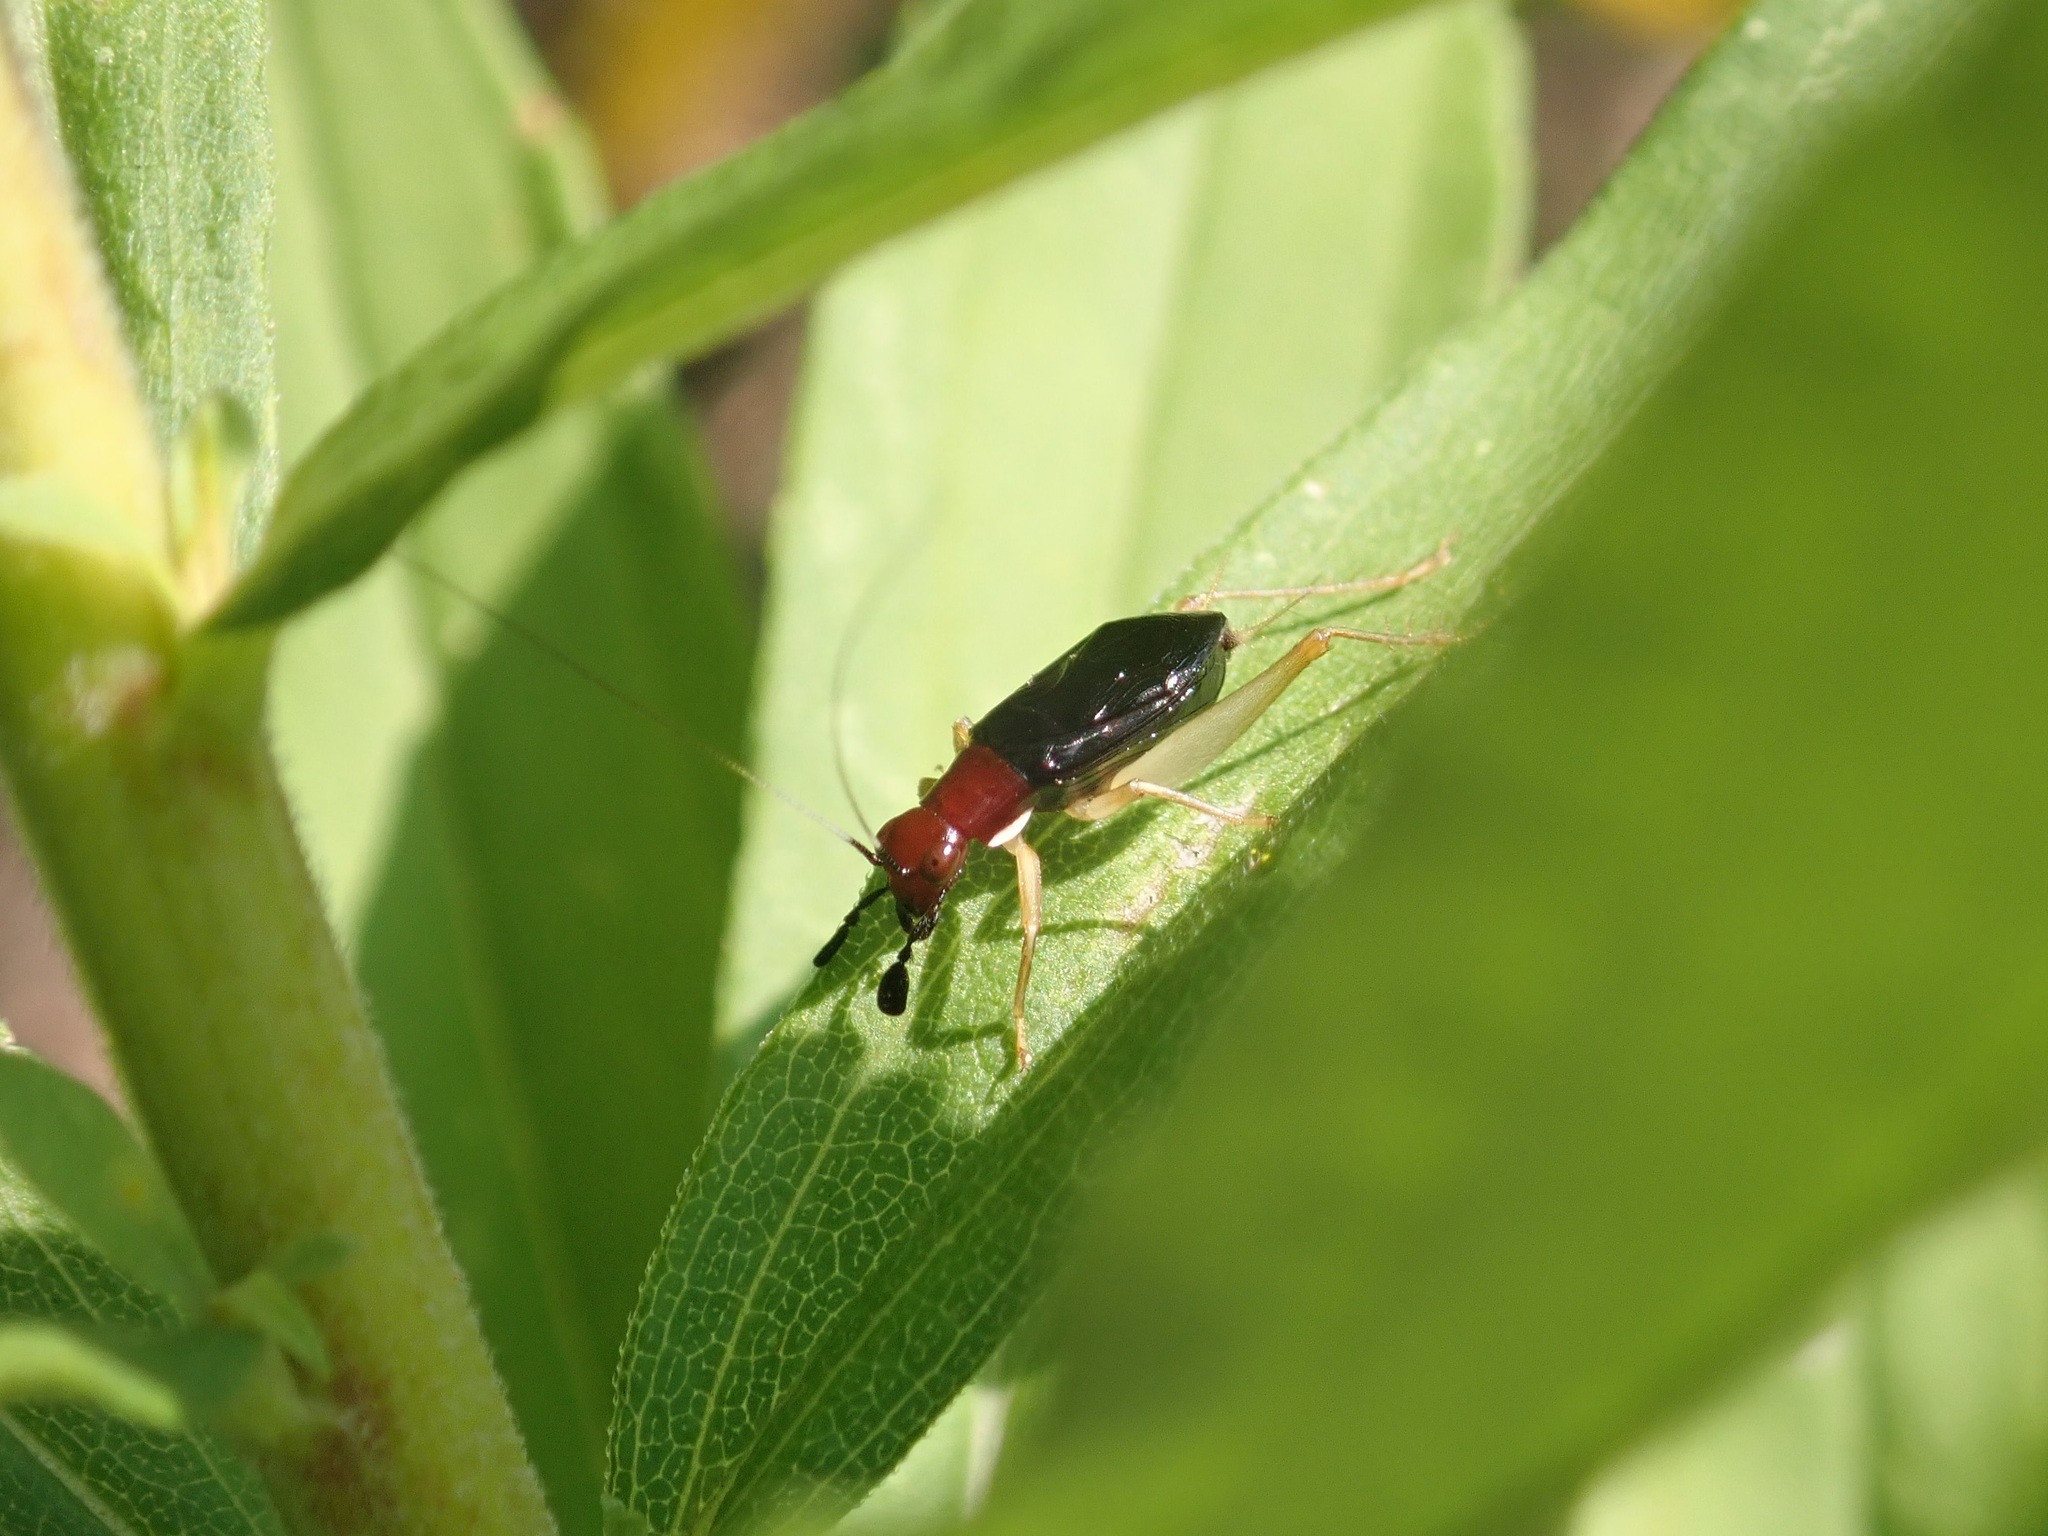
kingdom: Animalia
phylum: Arthropoda
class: Insecta
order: Orthoptera
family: Trigonidiidae
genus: Phyllopalpus
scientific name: Phyllopalpus pulchellus
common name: Handsome trig
